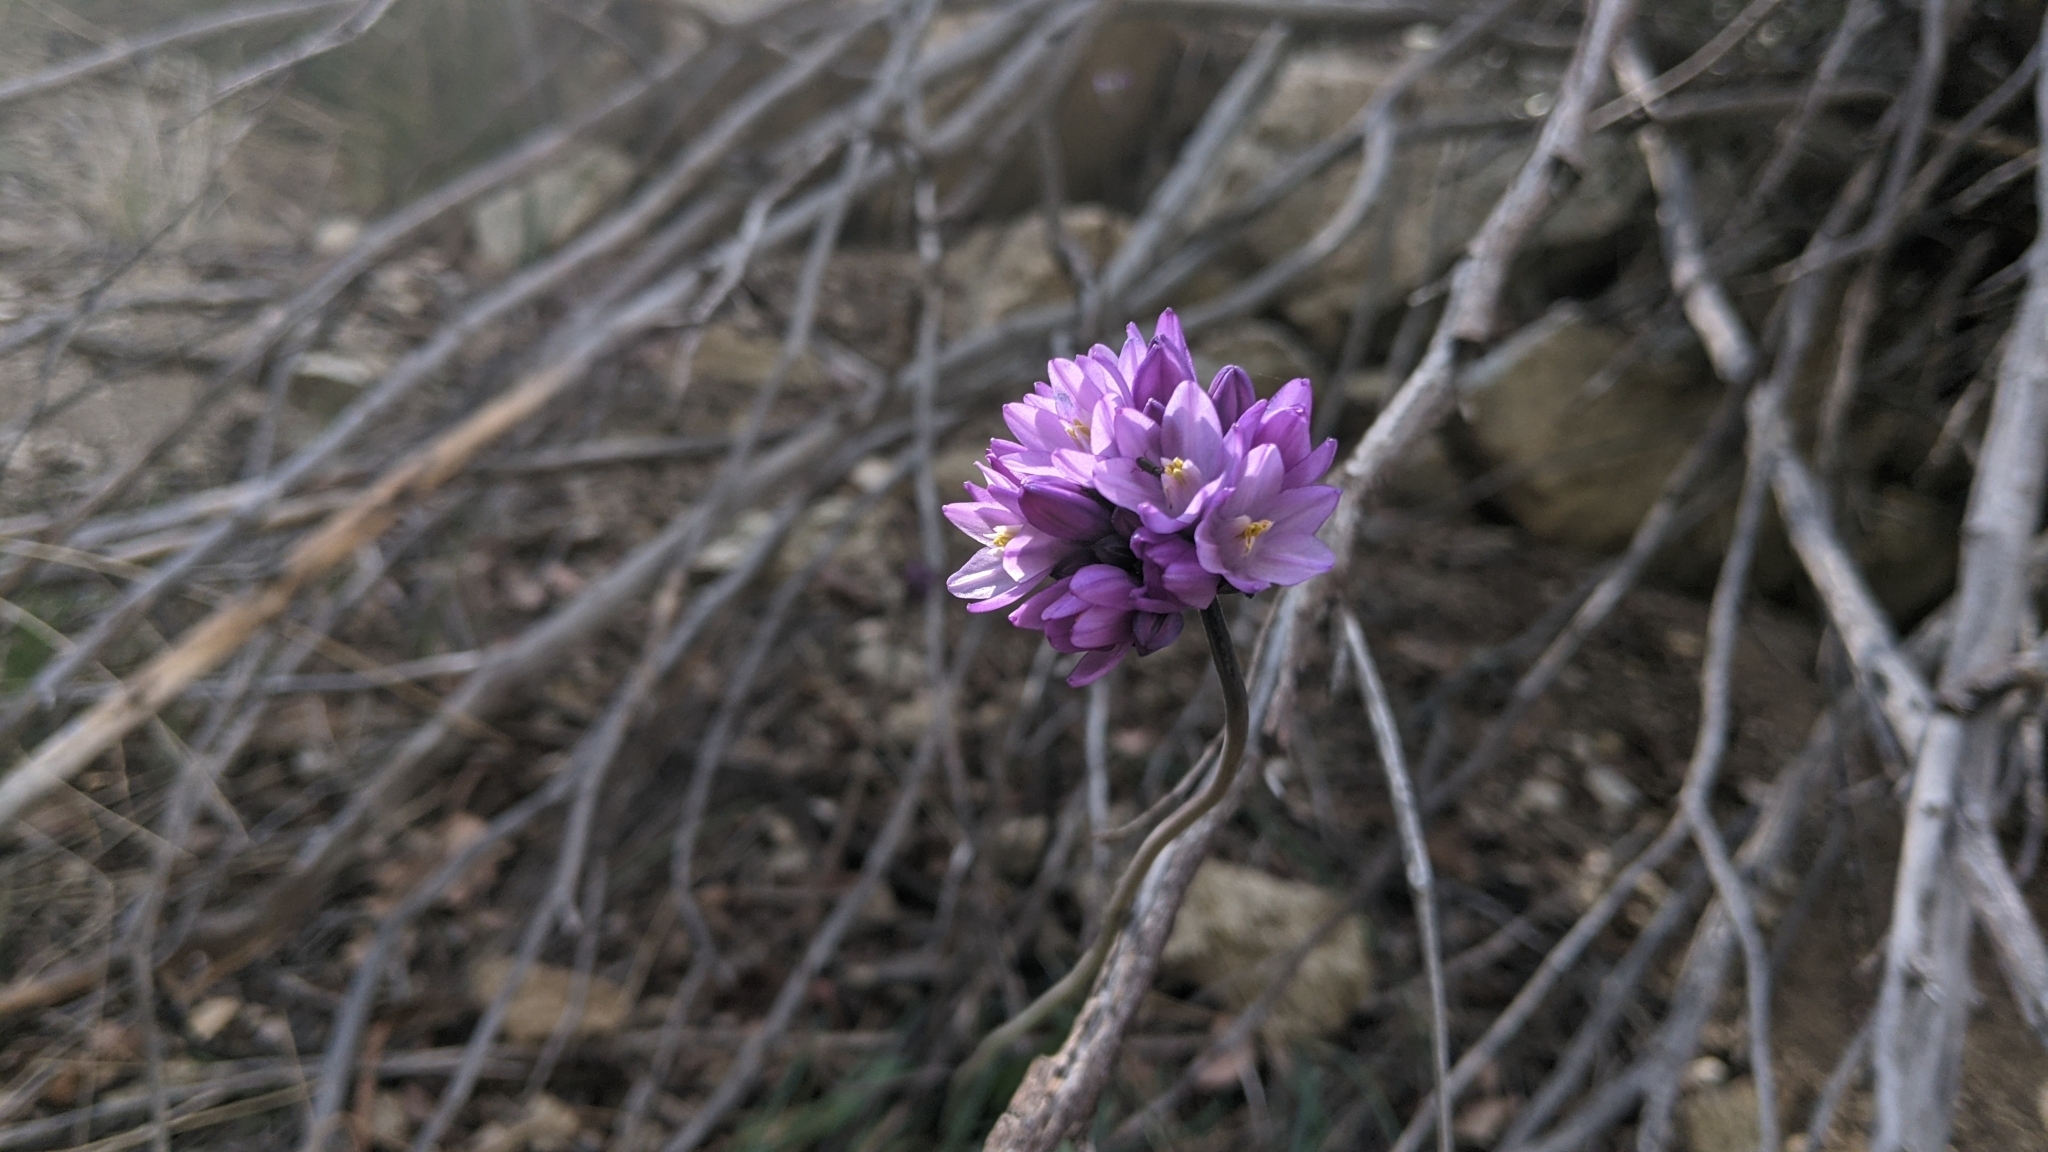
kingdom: Plantae
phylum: Tracheophyta
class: Liliopsida
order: Asparagales
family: Asparagaceae
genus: Dipterostemon
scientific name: Dipterostemon capitatus
